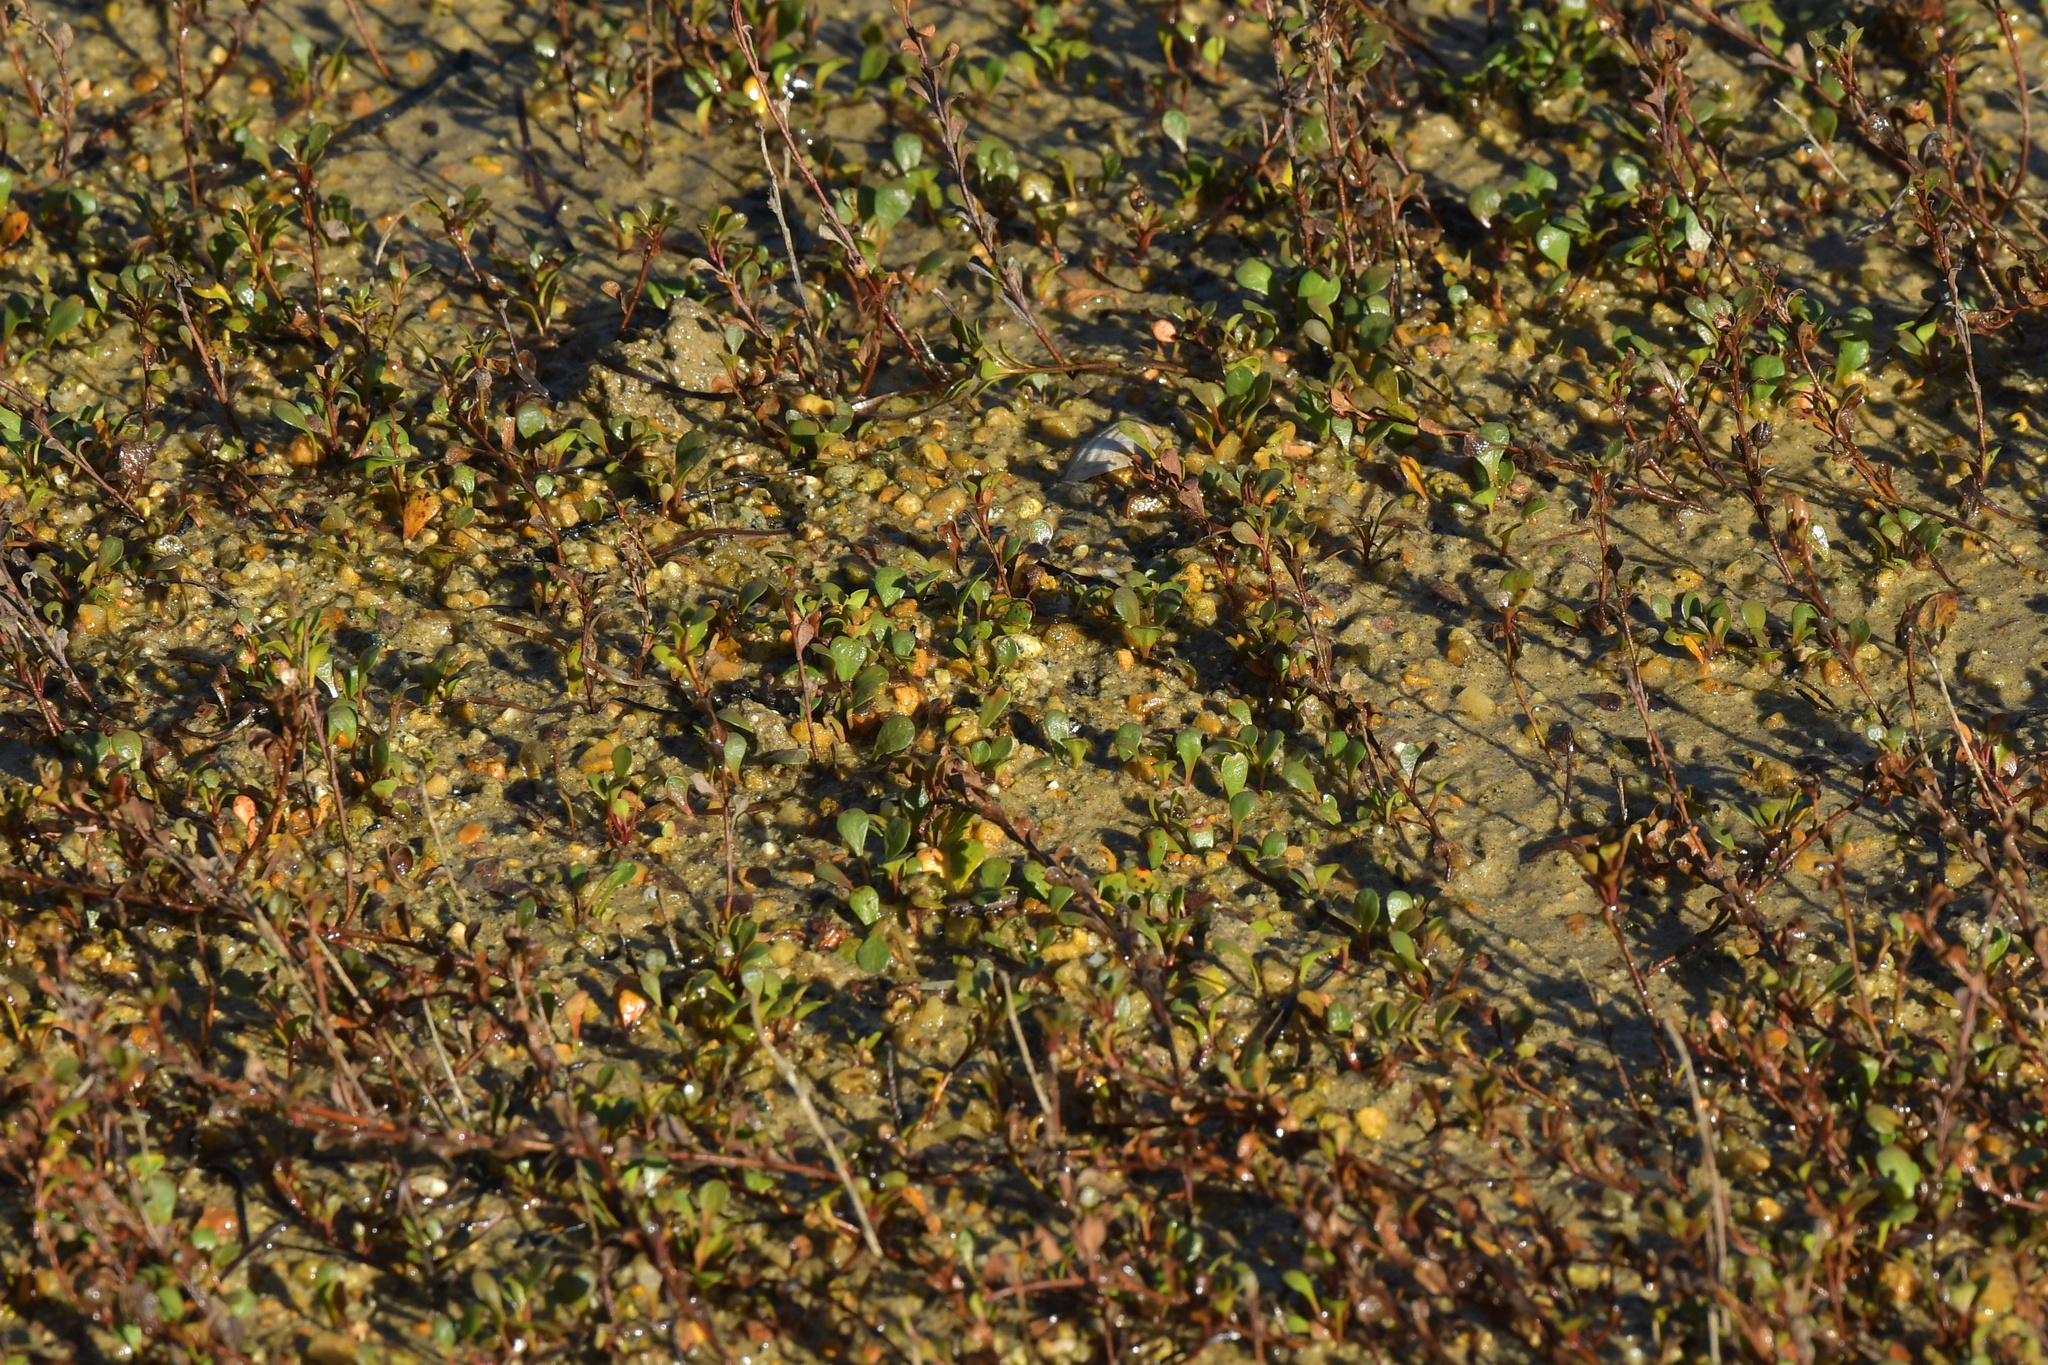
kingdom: Plantae
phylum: Tracheophyta
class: Magnoliopsida
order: Ericales
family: Primulaceae
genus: Samolus
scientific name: Samolus repens
